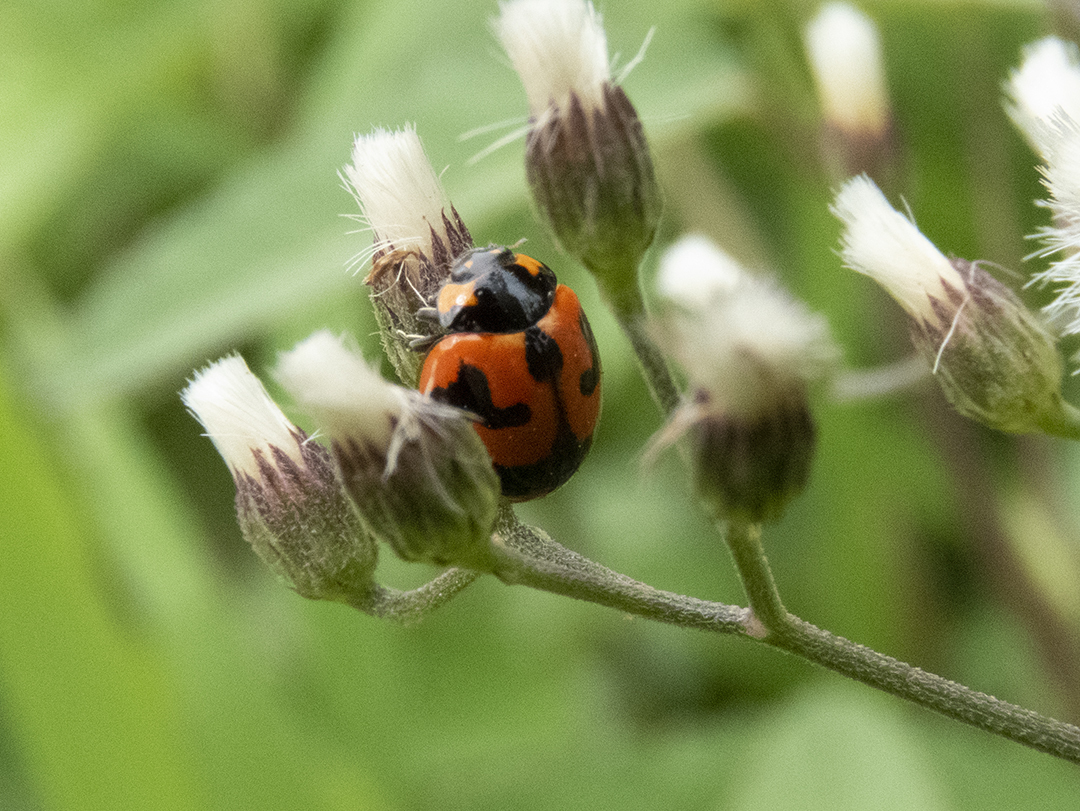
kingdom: Animalia
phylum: Arthropoda
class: Insecta
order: Coleoptera
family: Coccinellidae
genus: Coccinella
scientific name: Coccinella transversalis
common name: Transverse lady beetle
